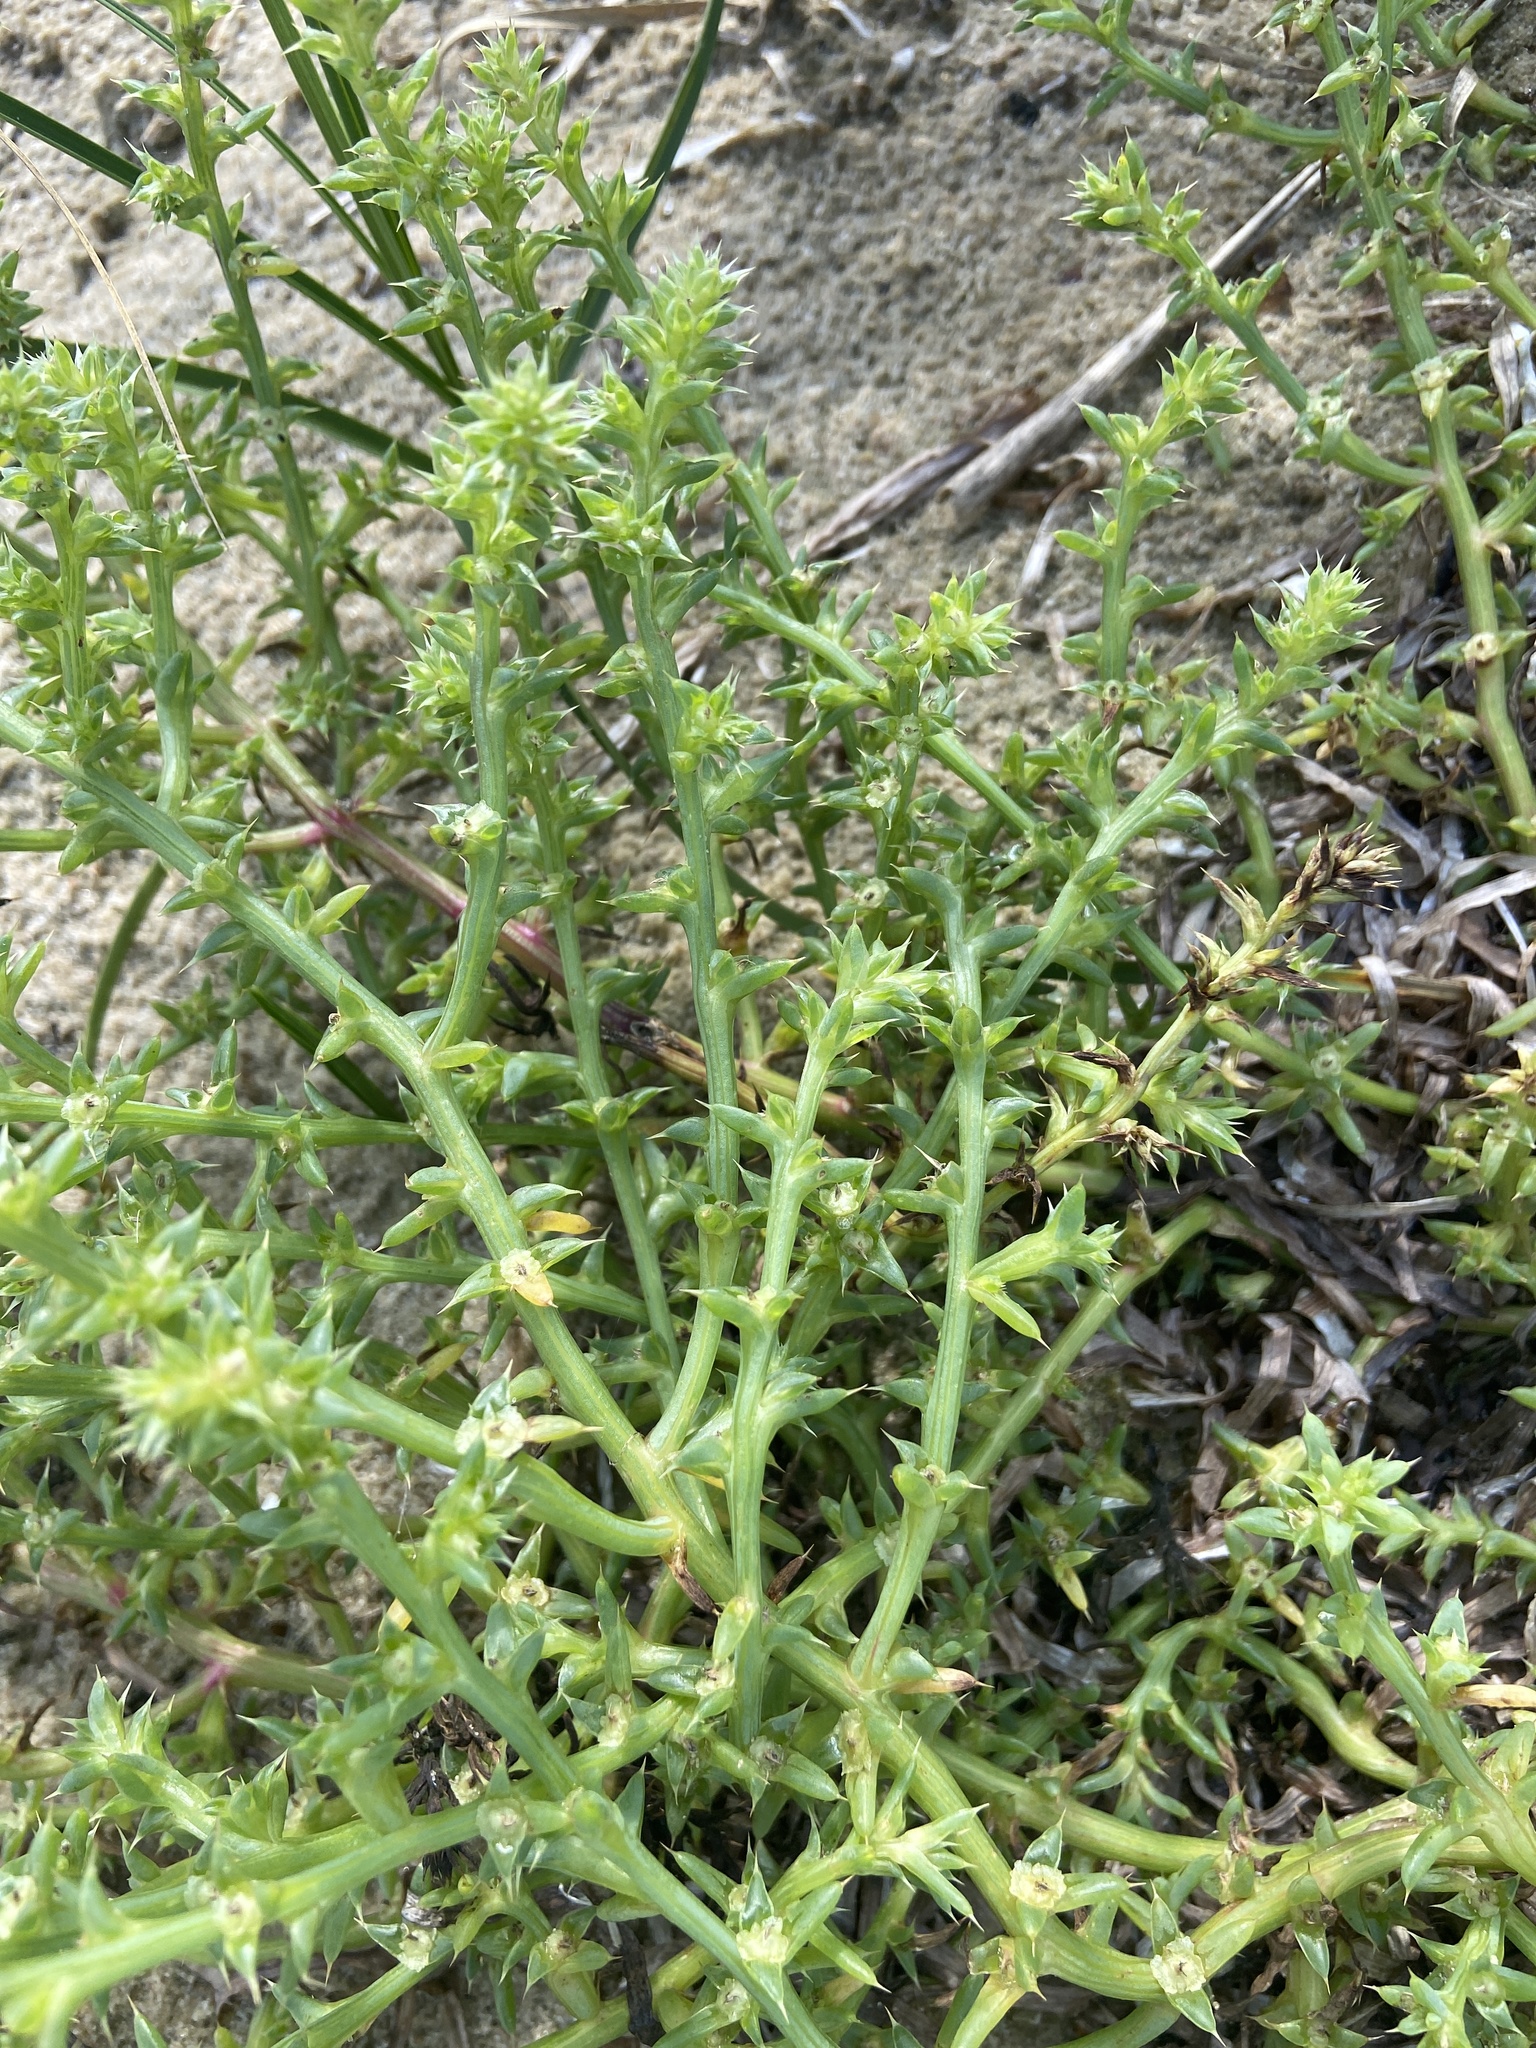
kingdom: Plantae
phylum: Tracheophyta
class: Magnoliopsida
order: Caryophyllales
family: Amaranthaceae
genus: Salsola
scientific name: Salsola kali
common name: Saltwort
